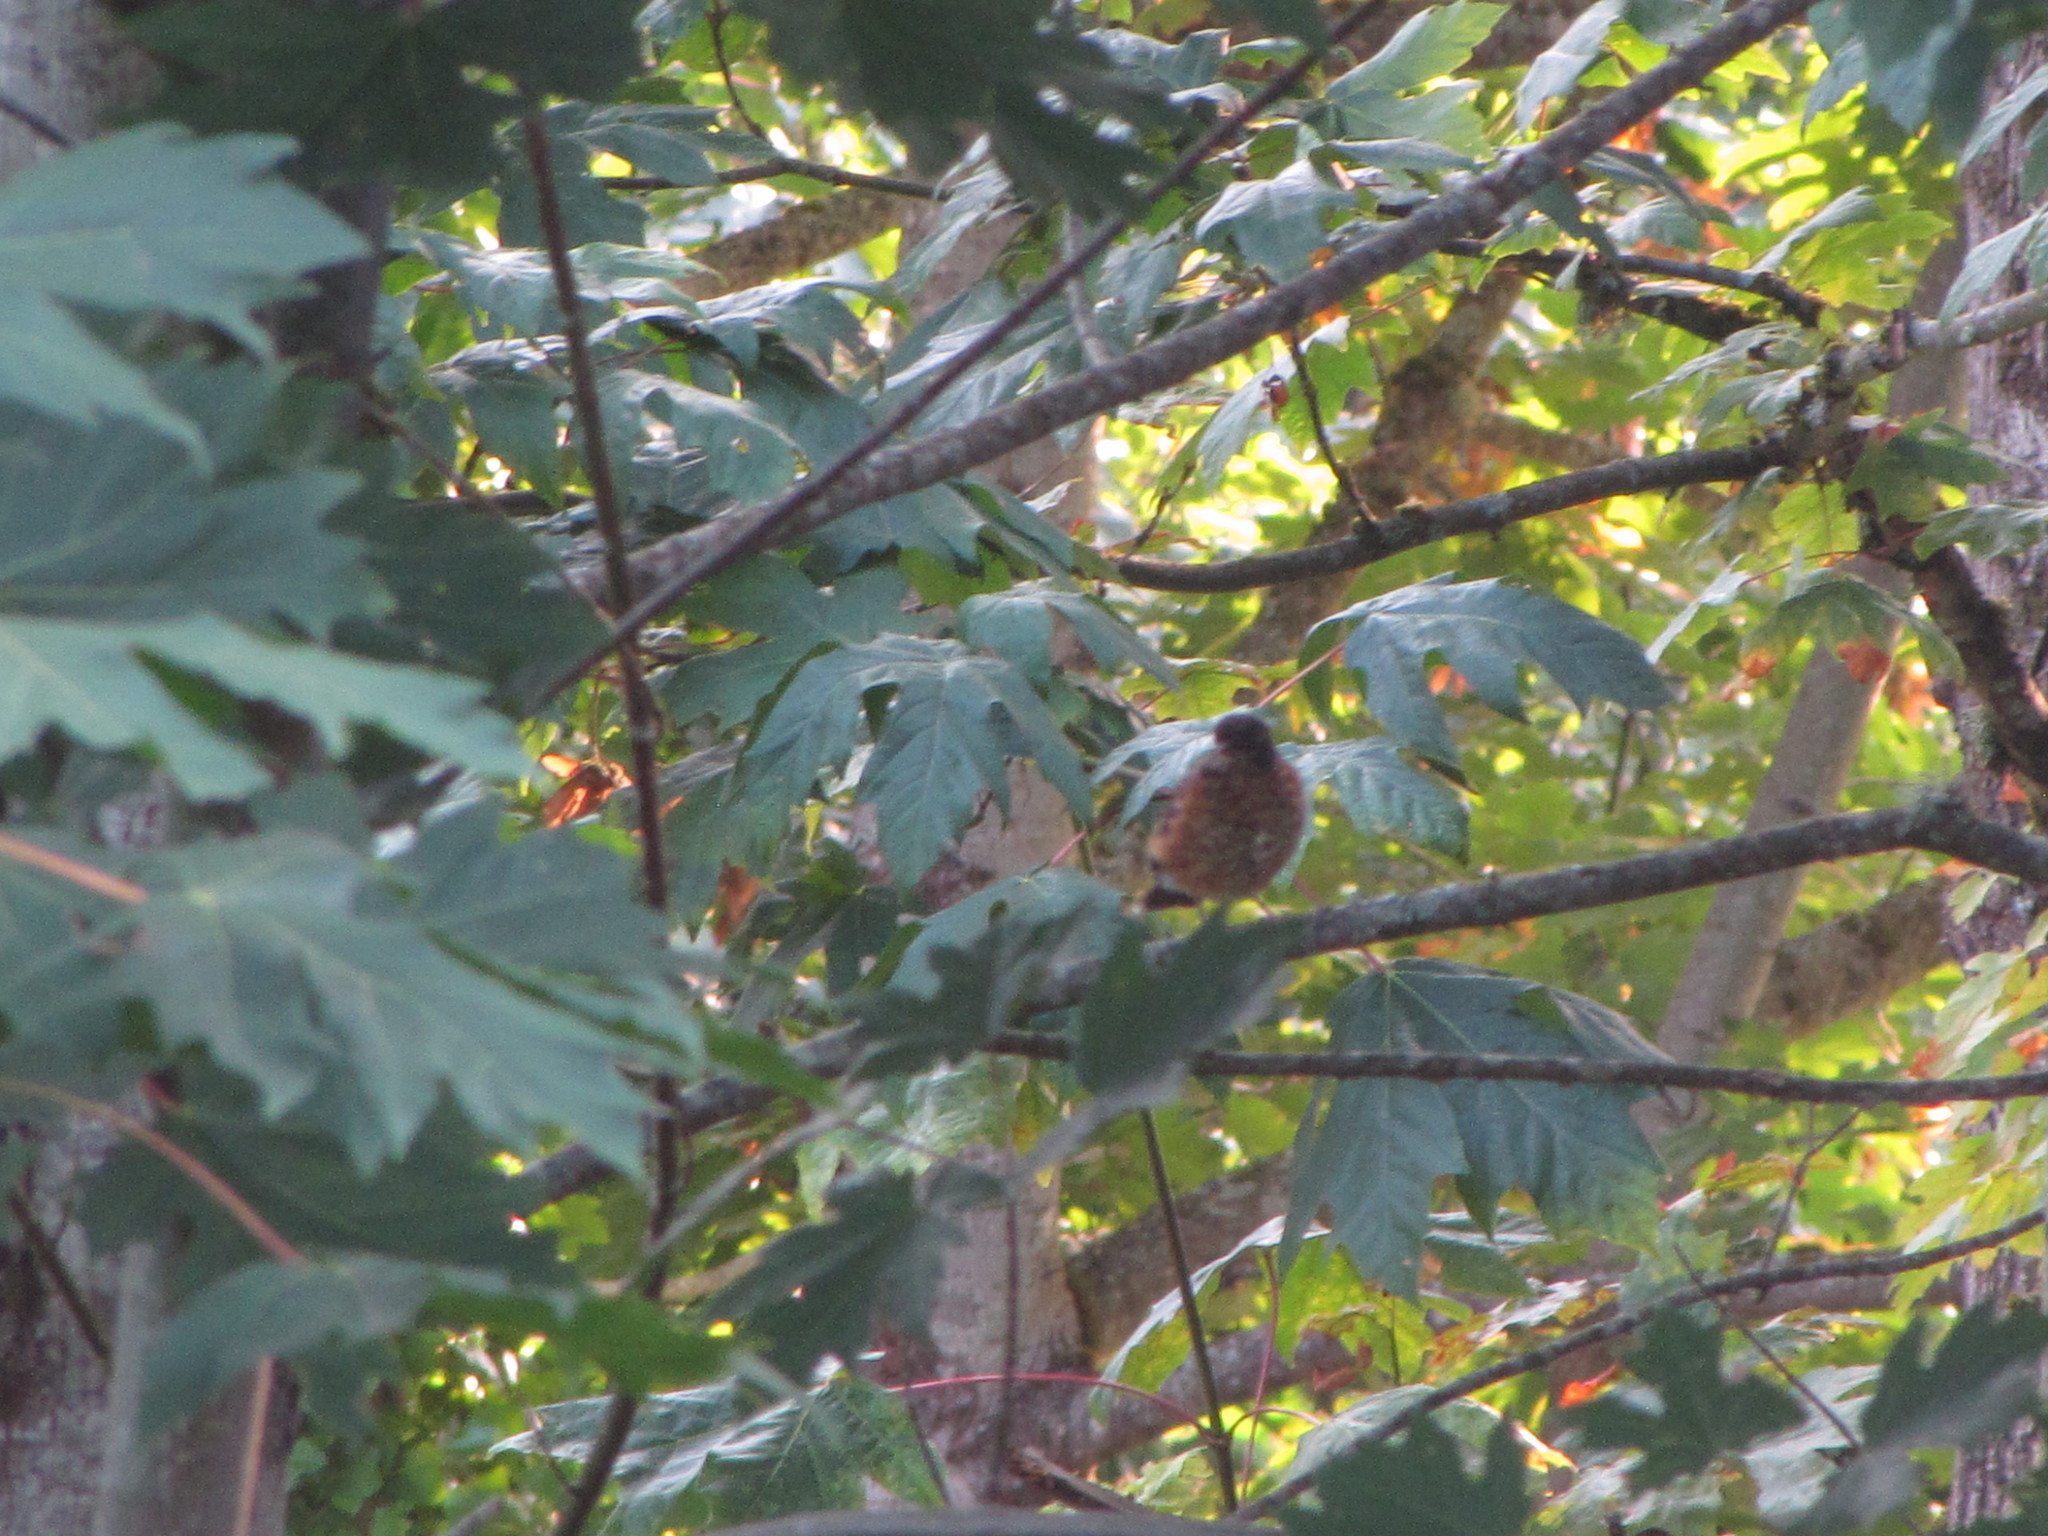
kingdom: Animalia
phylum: Chordata
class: Aves
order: Passeriformes
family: Turdidae
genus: Turdus
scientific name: Turdus migratorius
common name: American robin
